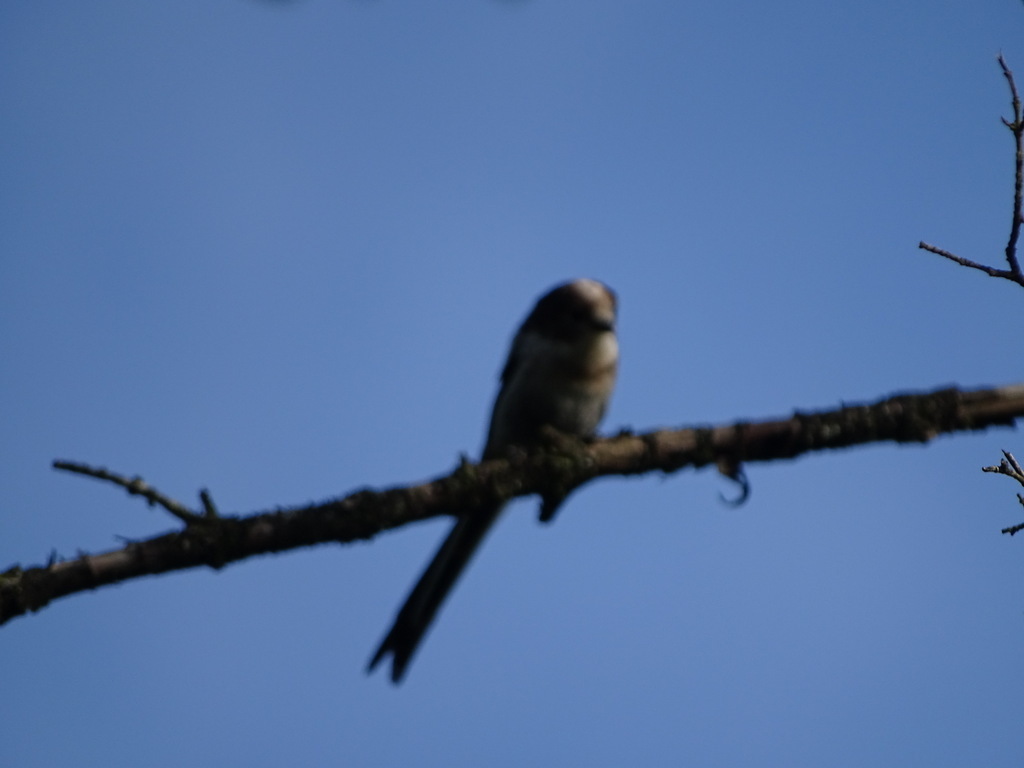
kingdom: Animalia
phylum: Chordata
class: Aves
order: Passeriformes
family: Aegithalidae
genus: Aegithalos
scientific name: Aegithalos caudatus
